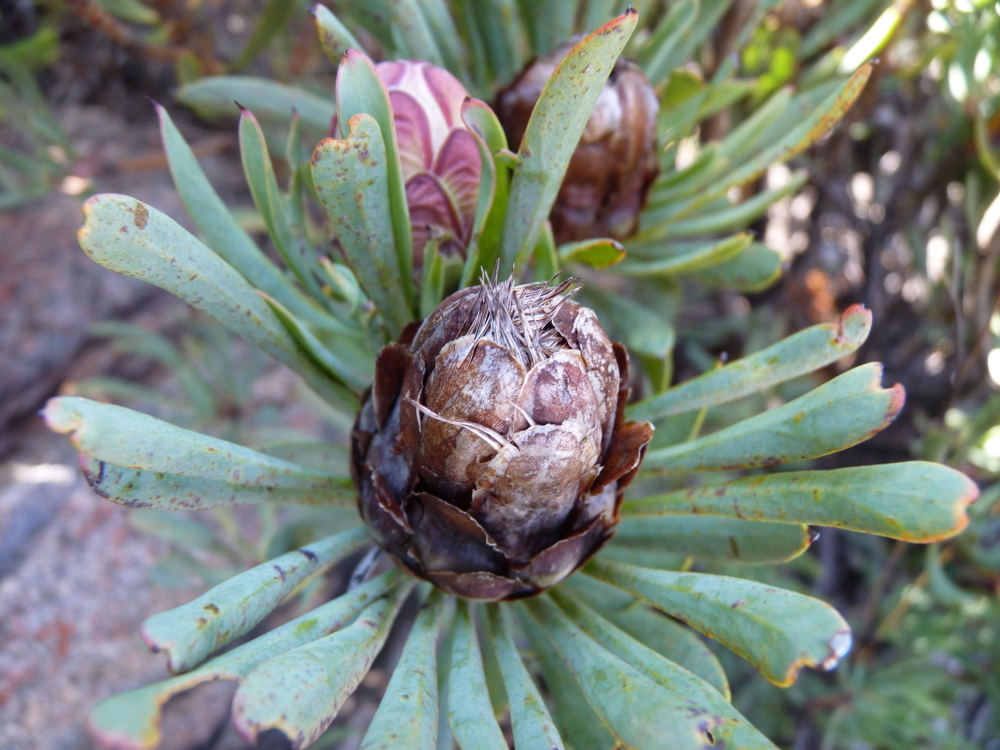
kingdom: Plantae
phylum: Tracheophyta
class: Magnoliopsida
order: Proteales
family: Proteaceae
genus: Protea
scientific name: Protea canaliculata
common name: Groove-leaf sugarbush
